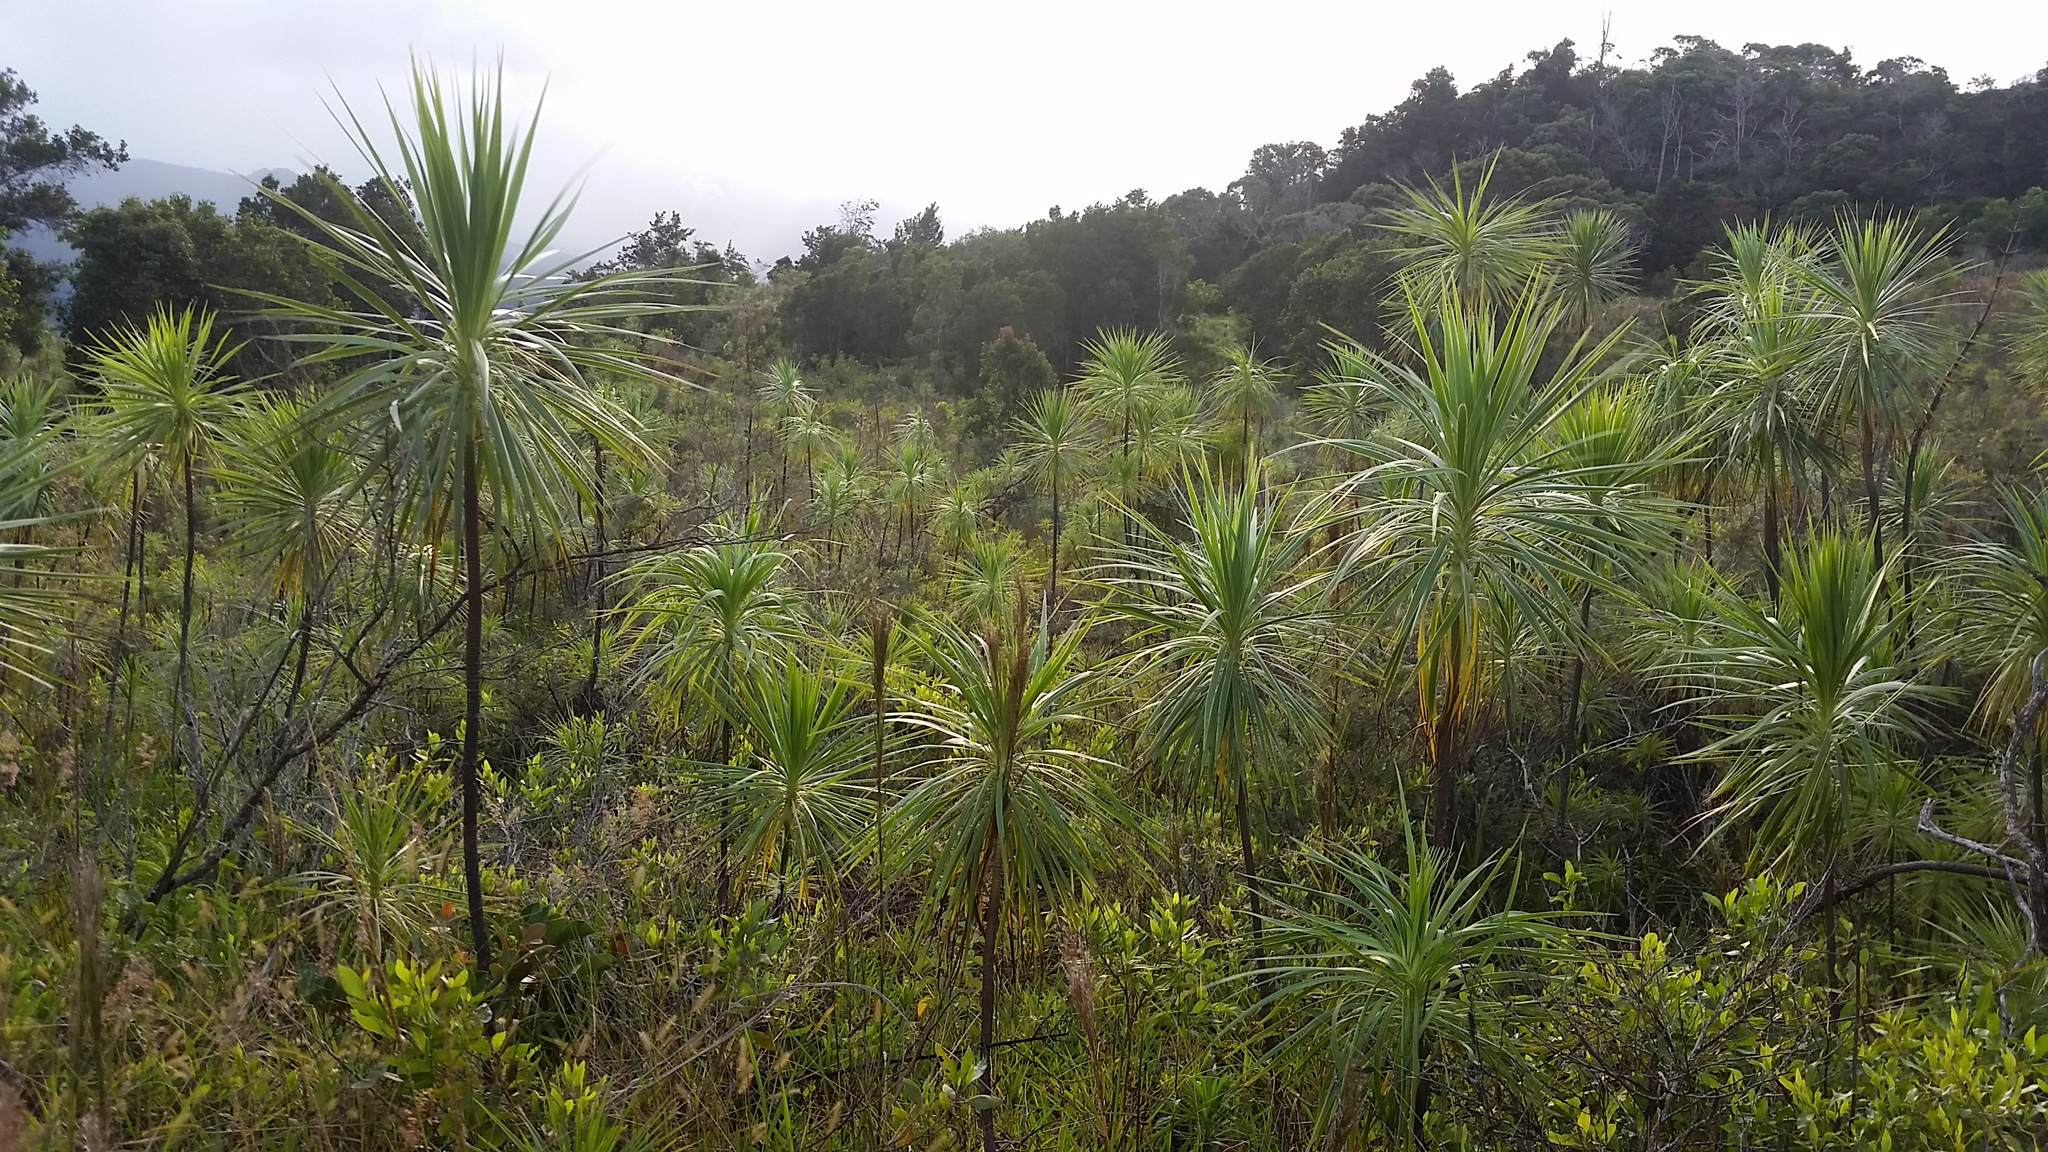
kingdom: Plantae
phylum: Tracheophyta
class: Magnoliopsida
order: Asterales
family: Asteraceae
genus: Wilkesia
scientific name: Wilkesia gymnoxiphium
